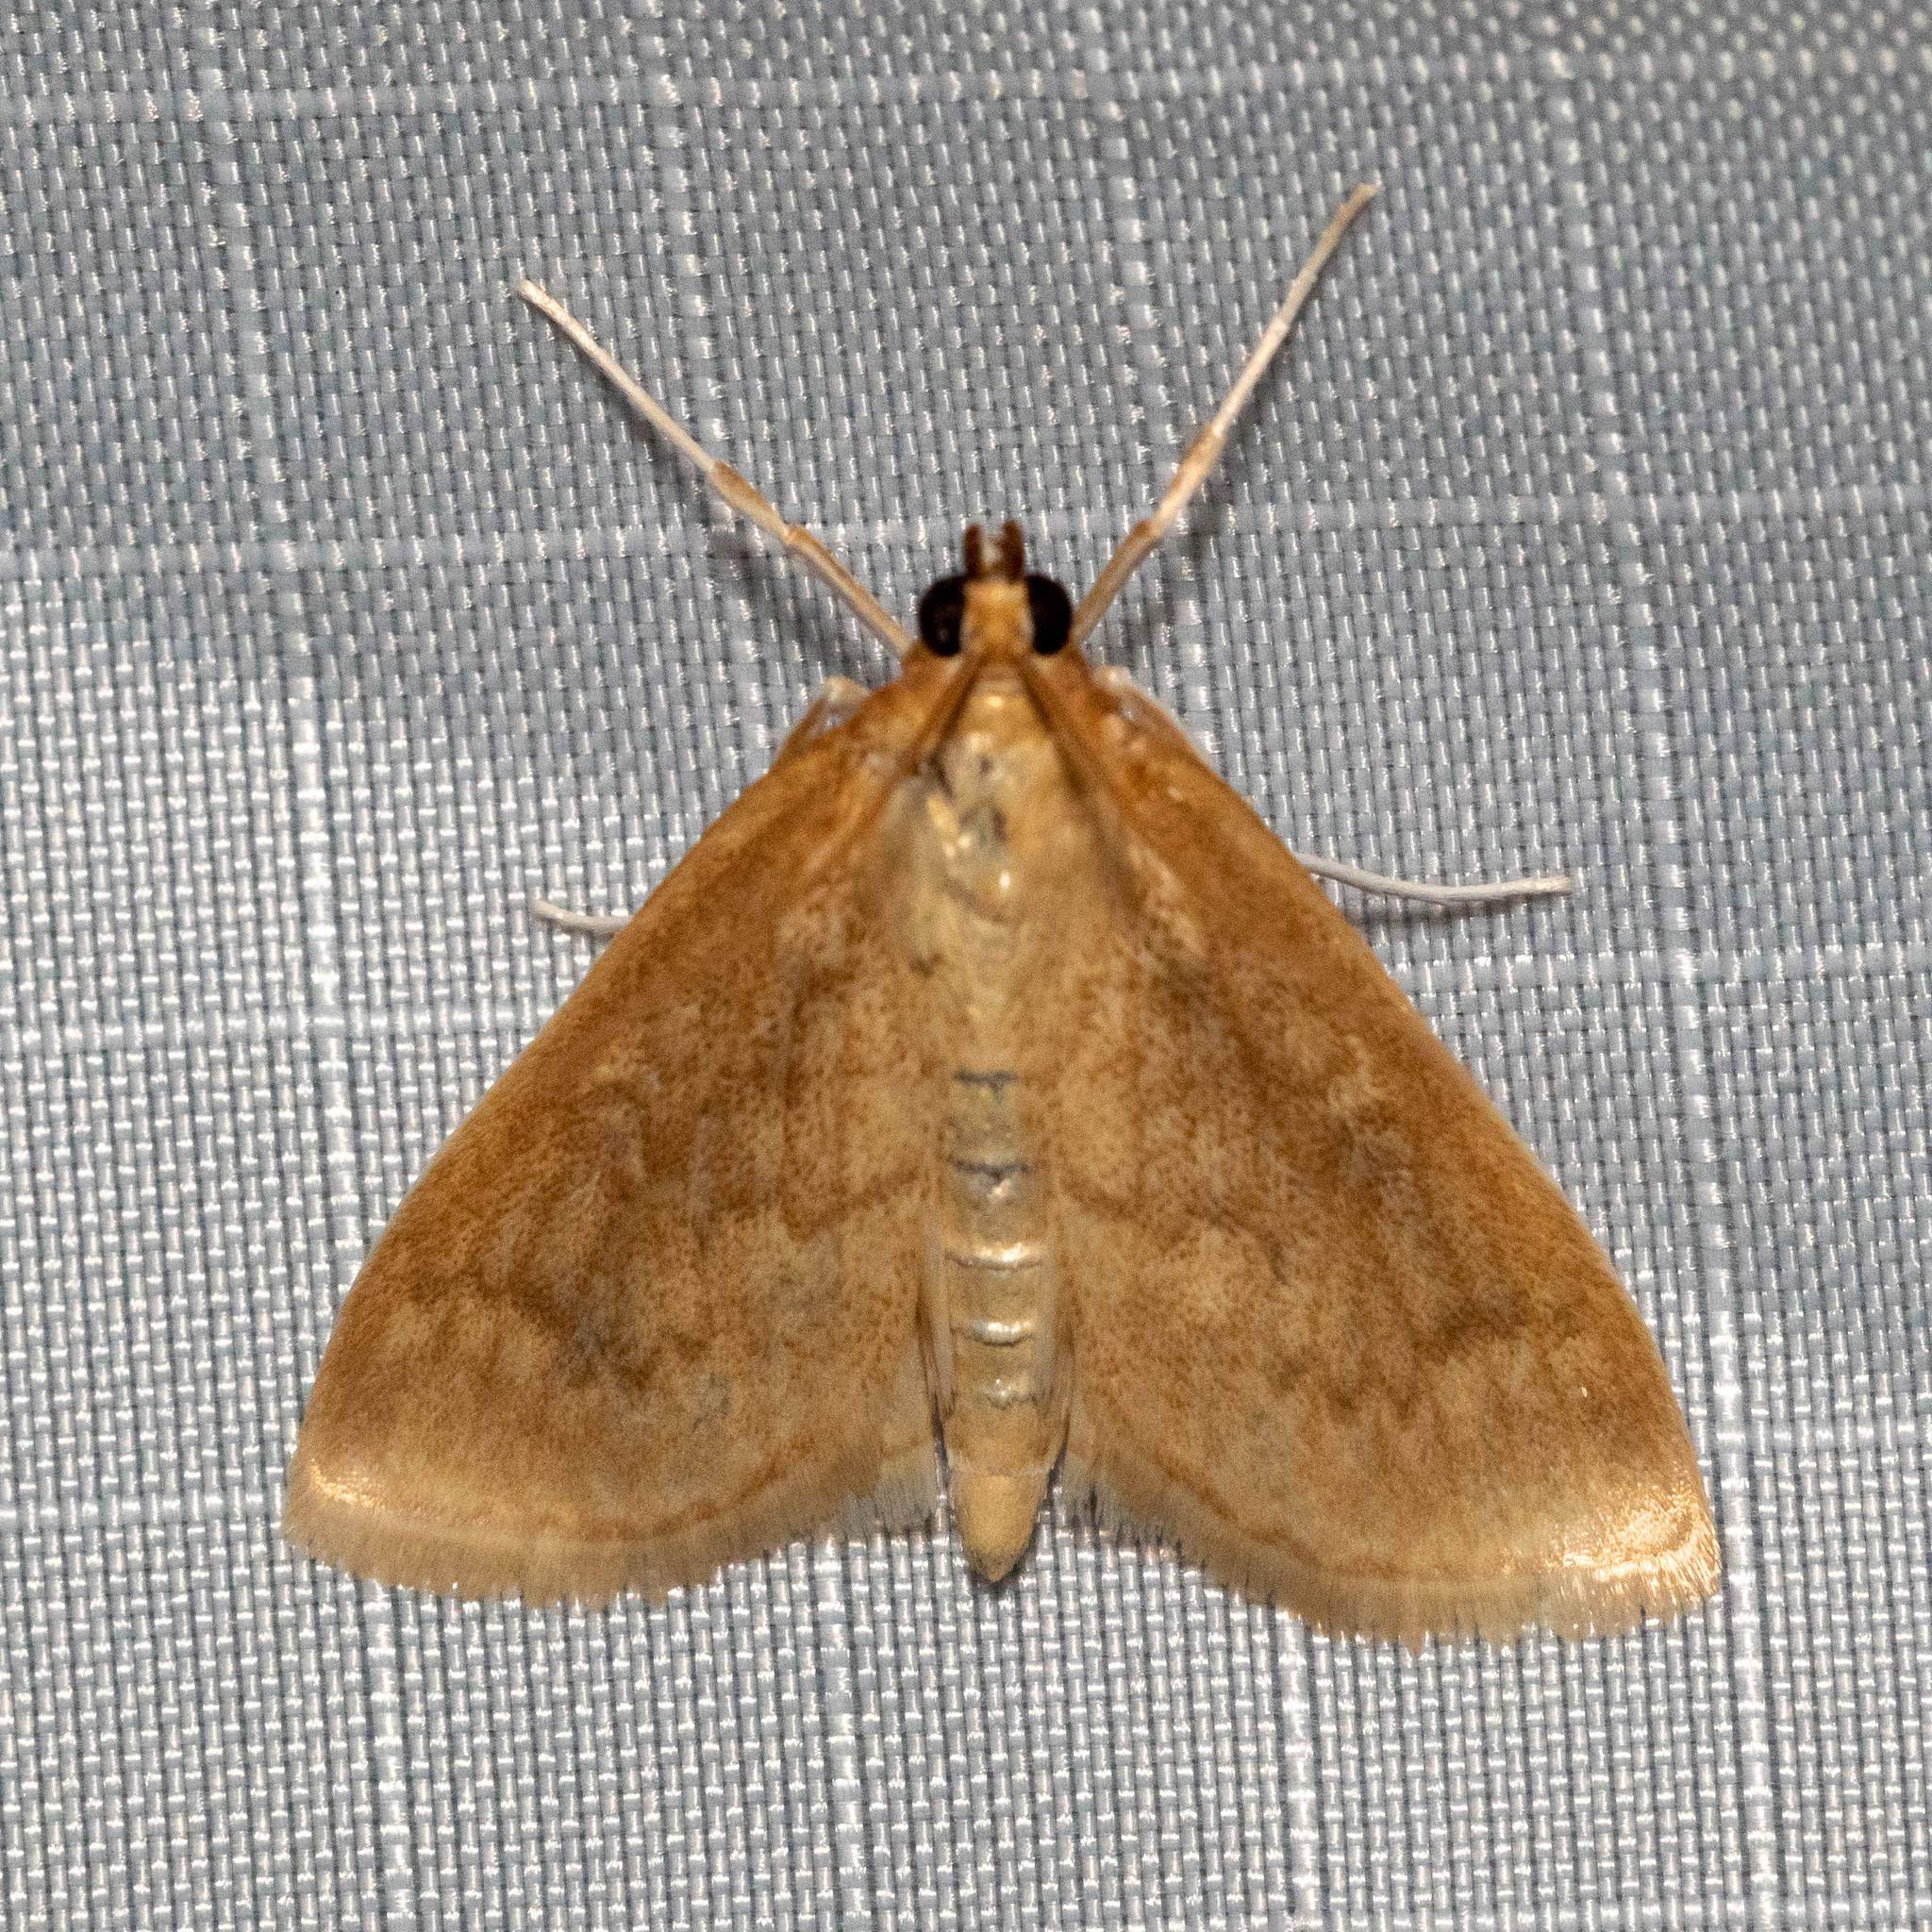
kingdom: Animalia
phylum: Arthropoda
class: Insecta
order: Lepidoptera
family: Crambidae
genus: Anania
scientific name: Anania Framinghamia helvalis
